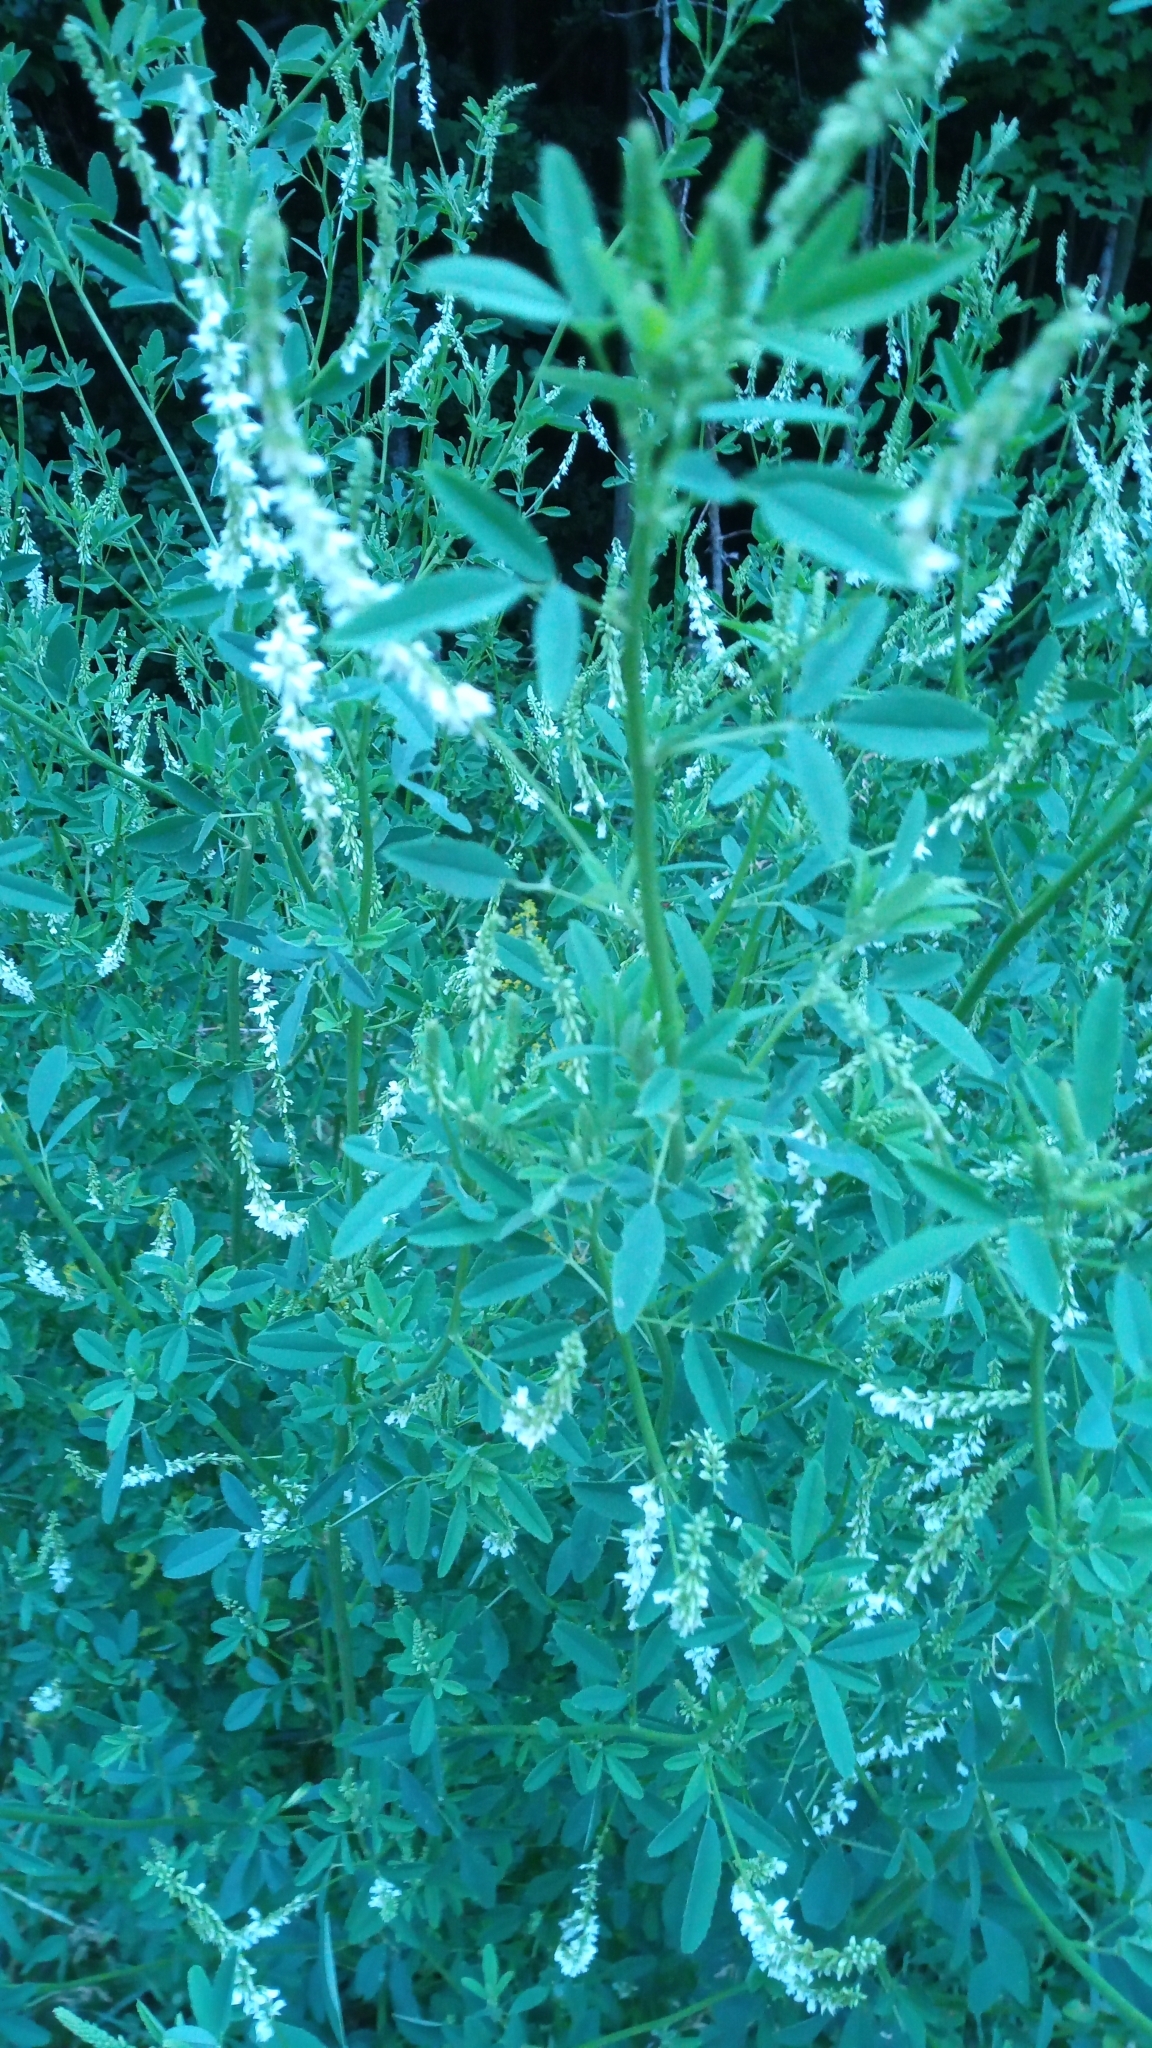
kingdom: Plantae
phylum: Tracheophyta
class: Magnoliopsida
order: Fabales
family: Fabaceae
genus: Melilotus
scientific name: Melilotus albus
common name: White melilot
